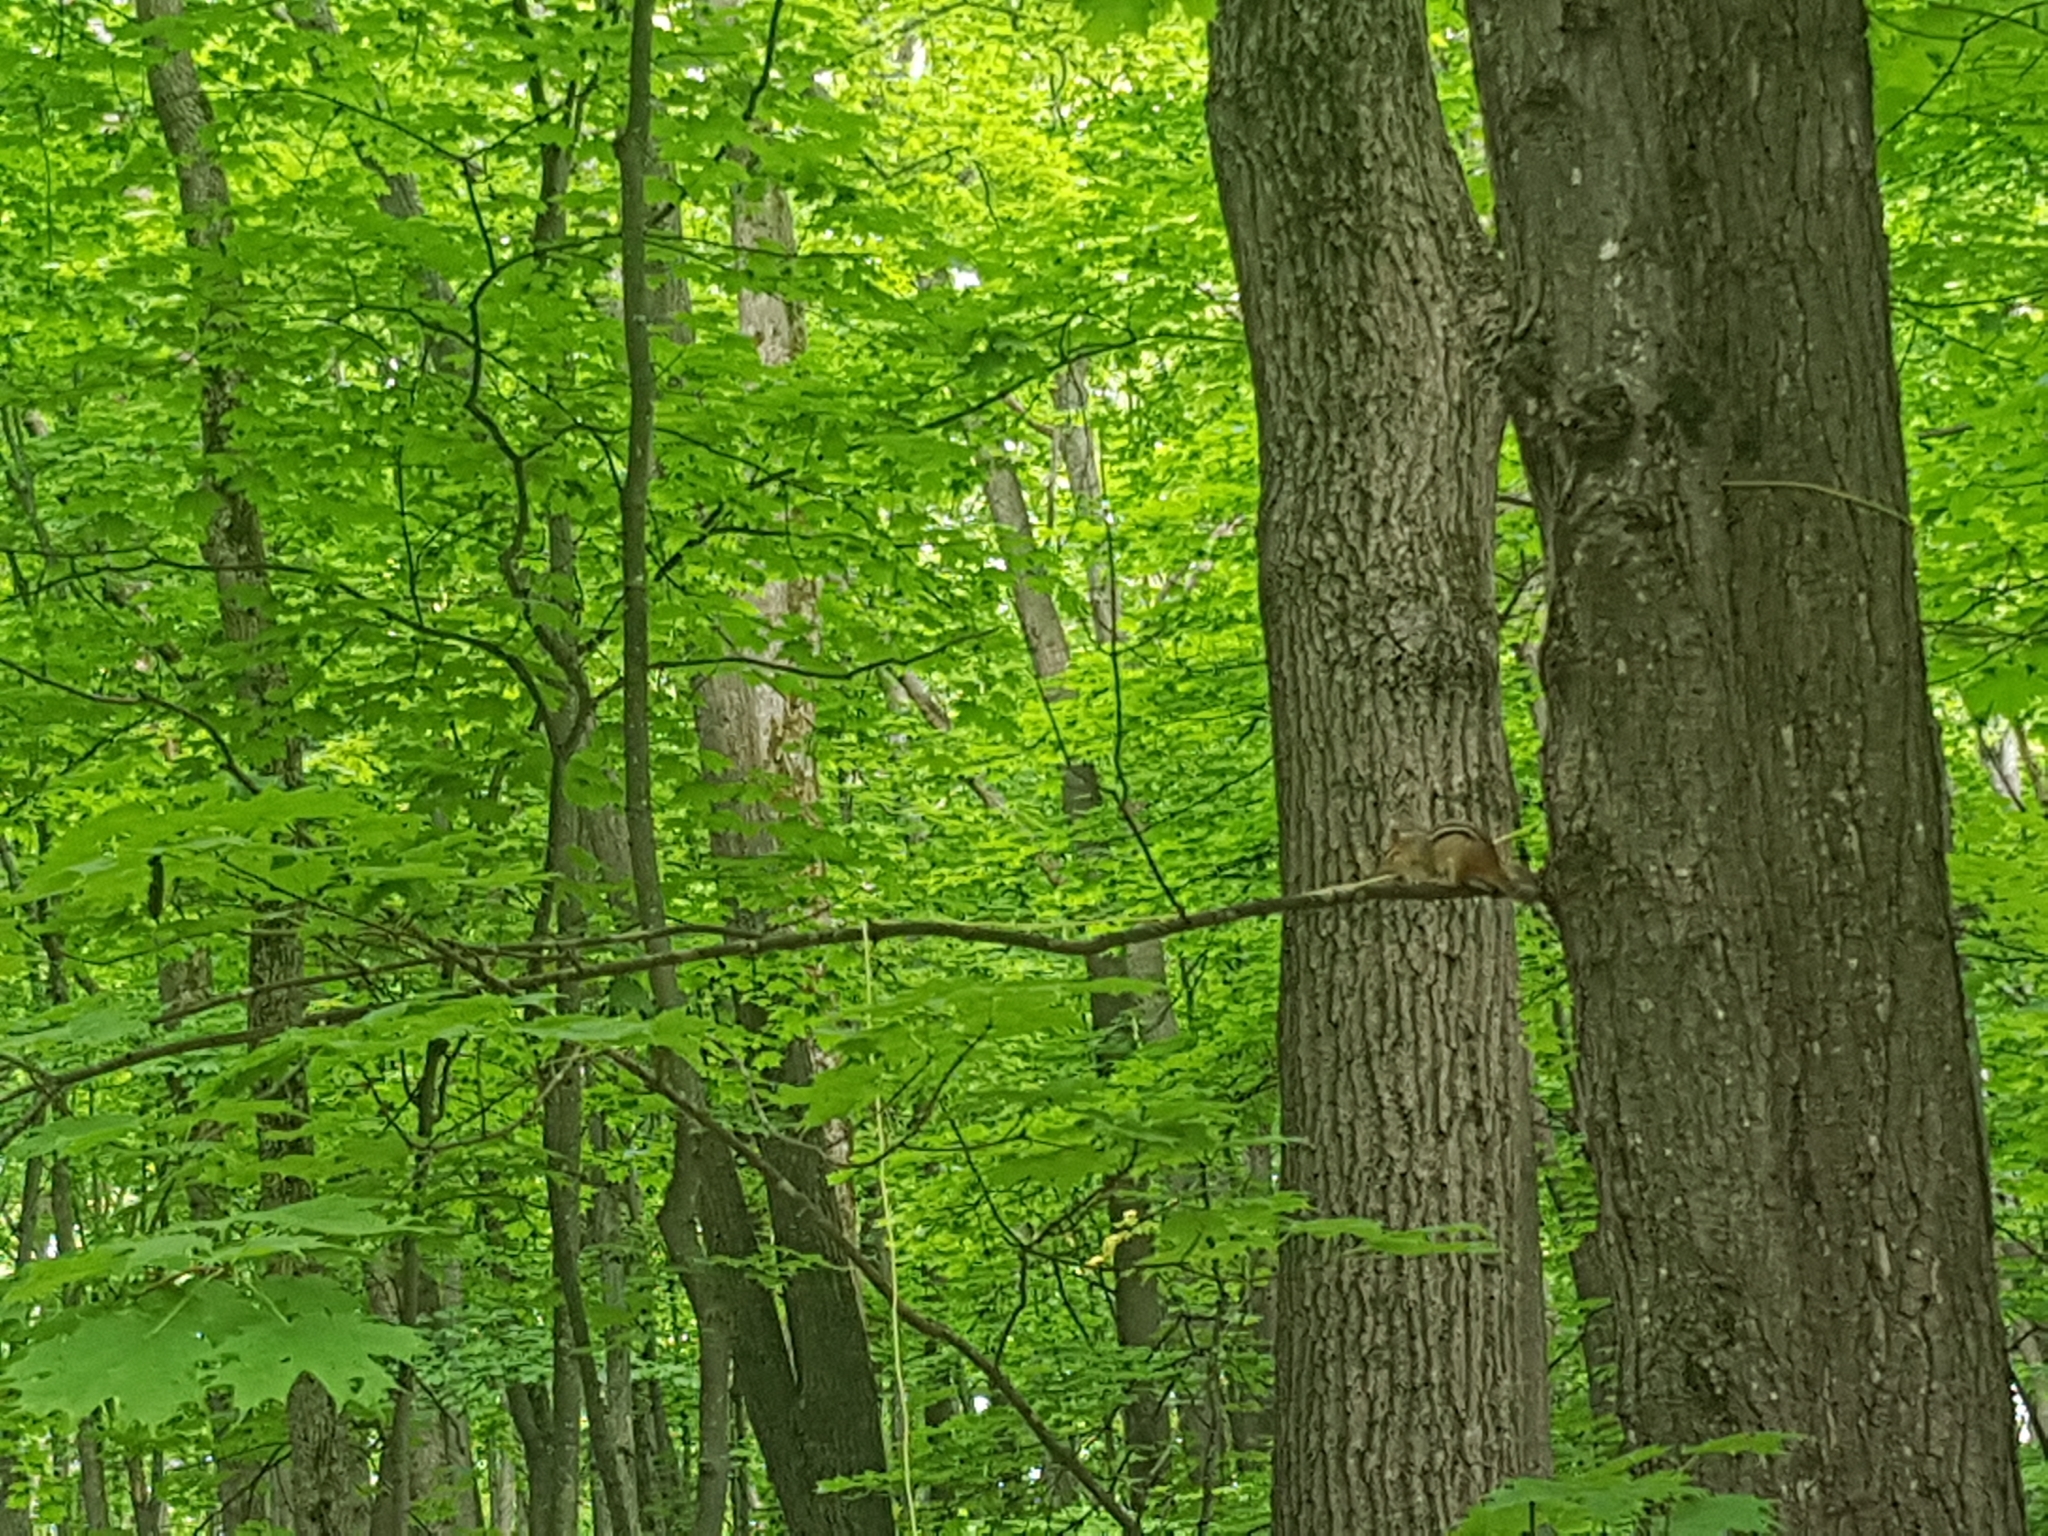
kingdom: Animalia
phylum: Chordata
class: Mammalia
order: Rodentia
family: Sciuridae
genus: Tamias
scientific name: Tamias striatus
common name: Eastern chipmunk
